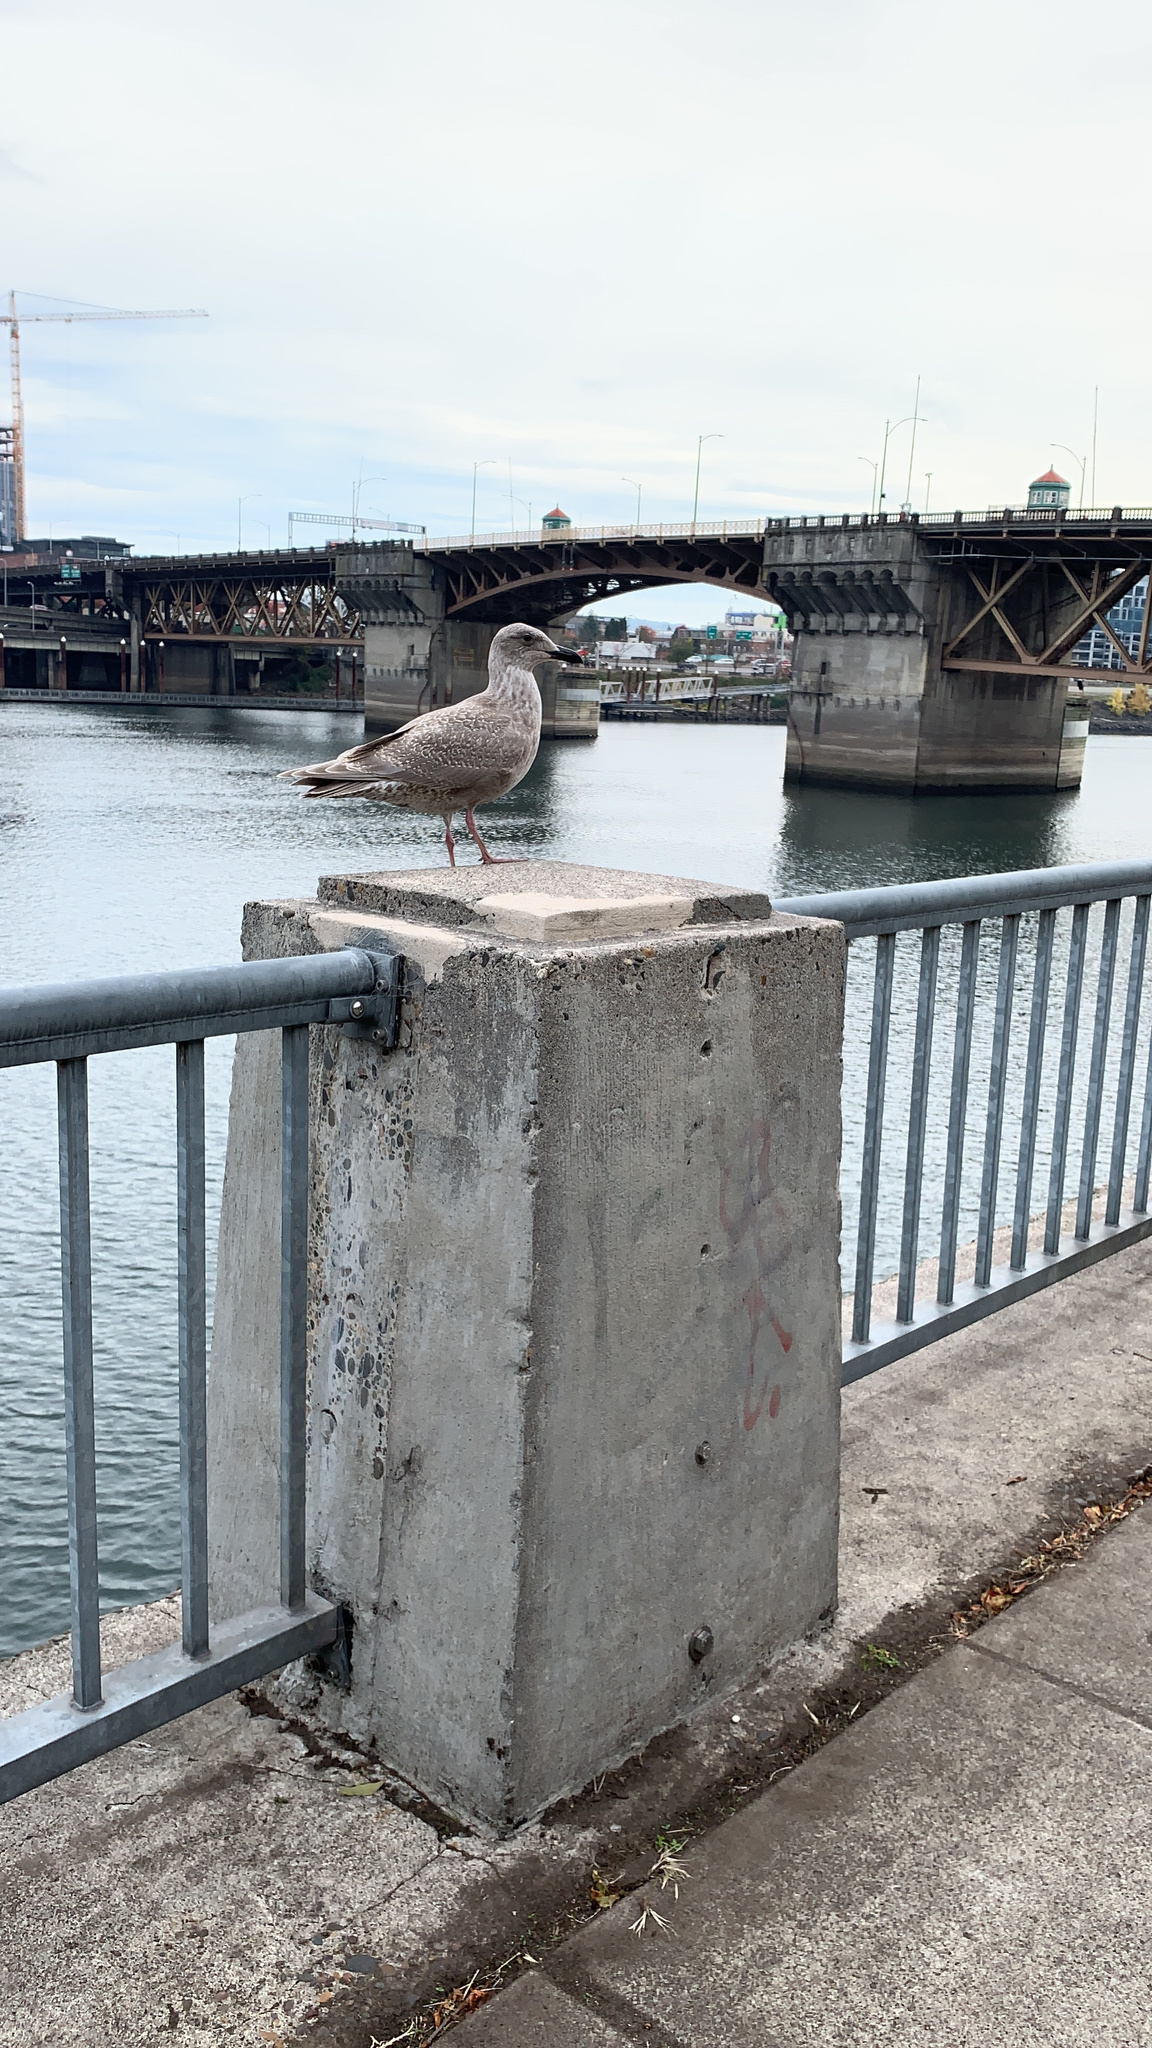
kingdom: Animalia
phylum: Chordata
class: Aves
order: Charadriiformes
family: Laridae
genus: Larus
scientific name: Larus glaucescens
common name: Glaucous-winged gull
